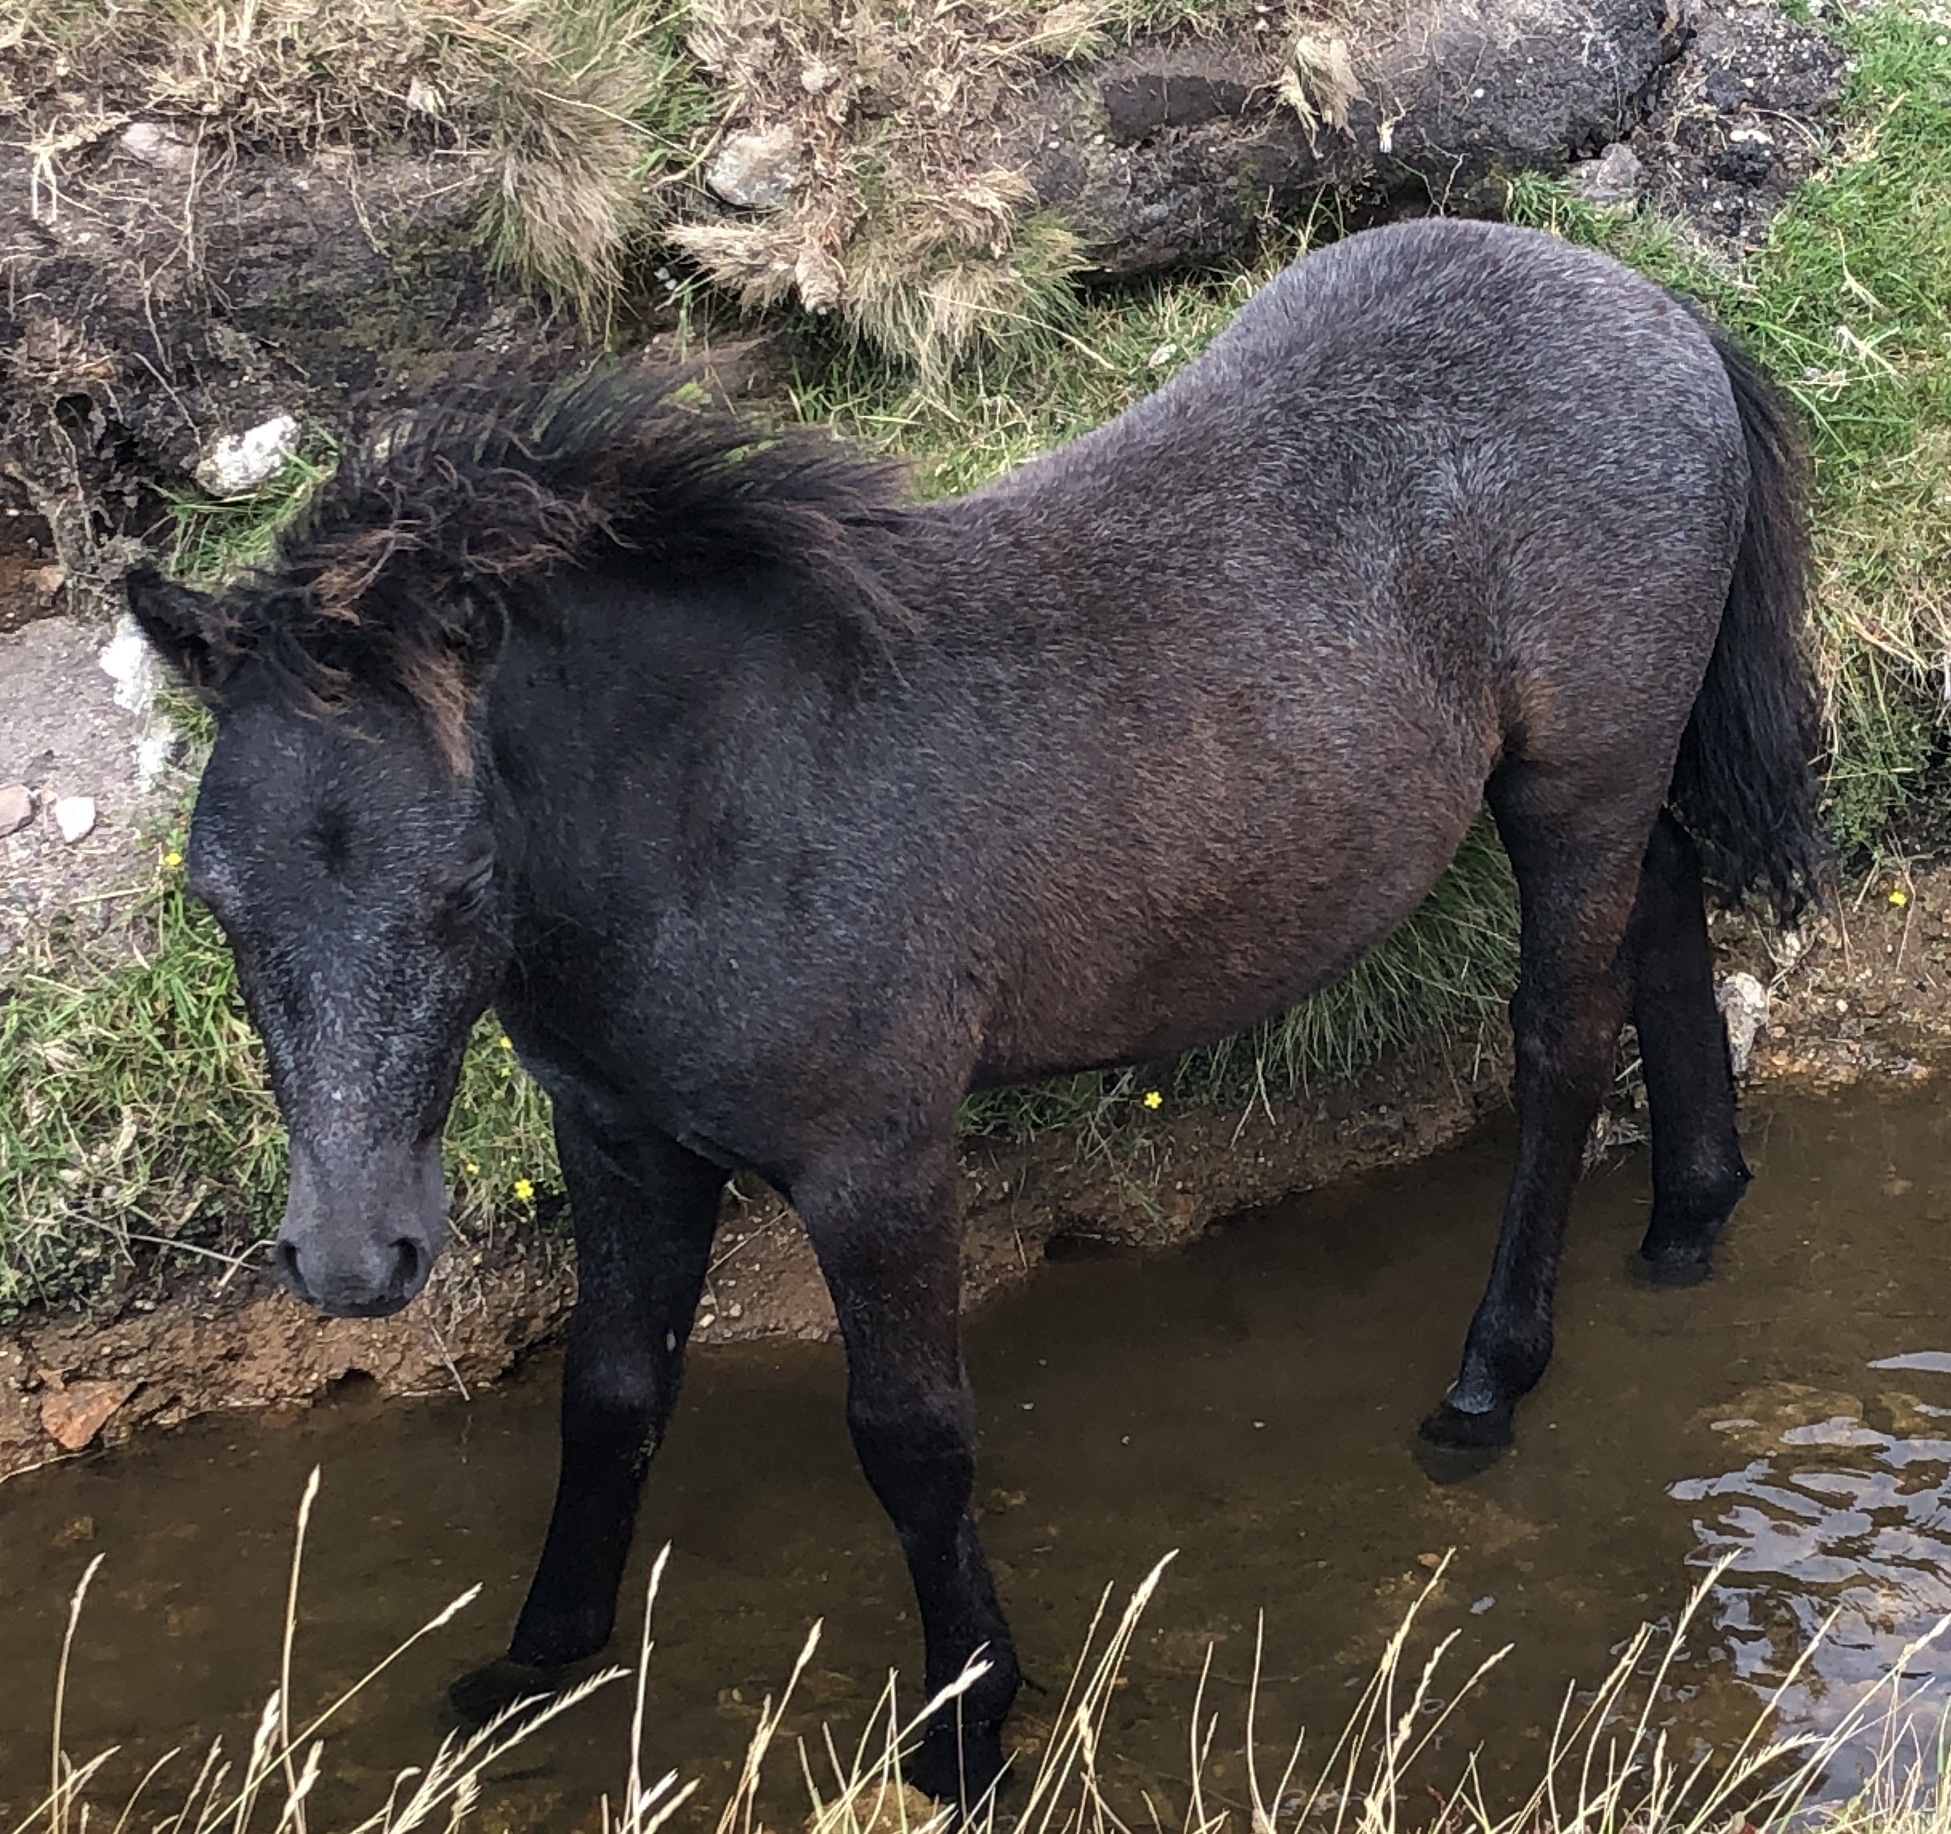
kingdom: Animalia
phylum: Chordata
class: Mammalia
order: Perissodactyla
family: Equidae
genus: Equus
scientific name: Equus caballus
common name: Horse
